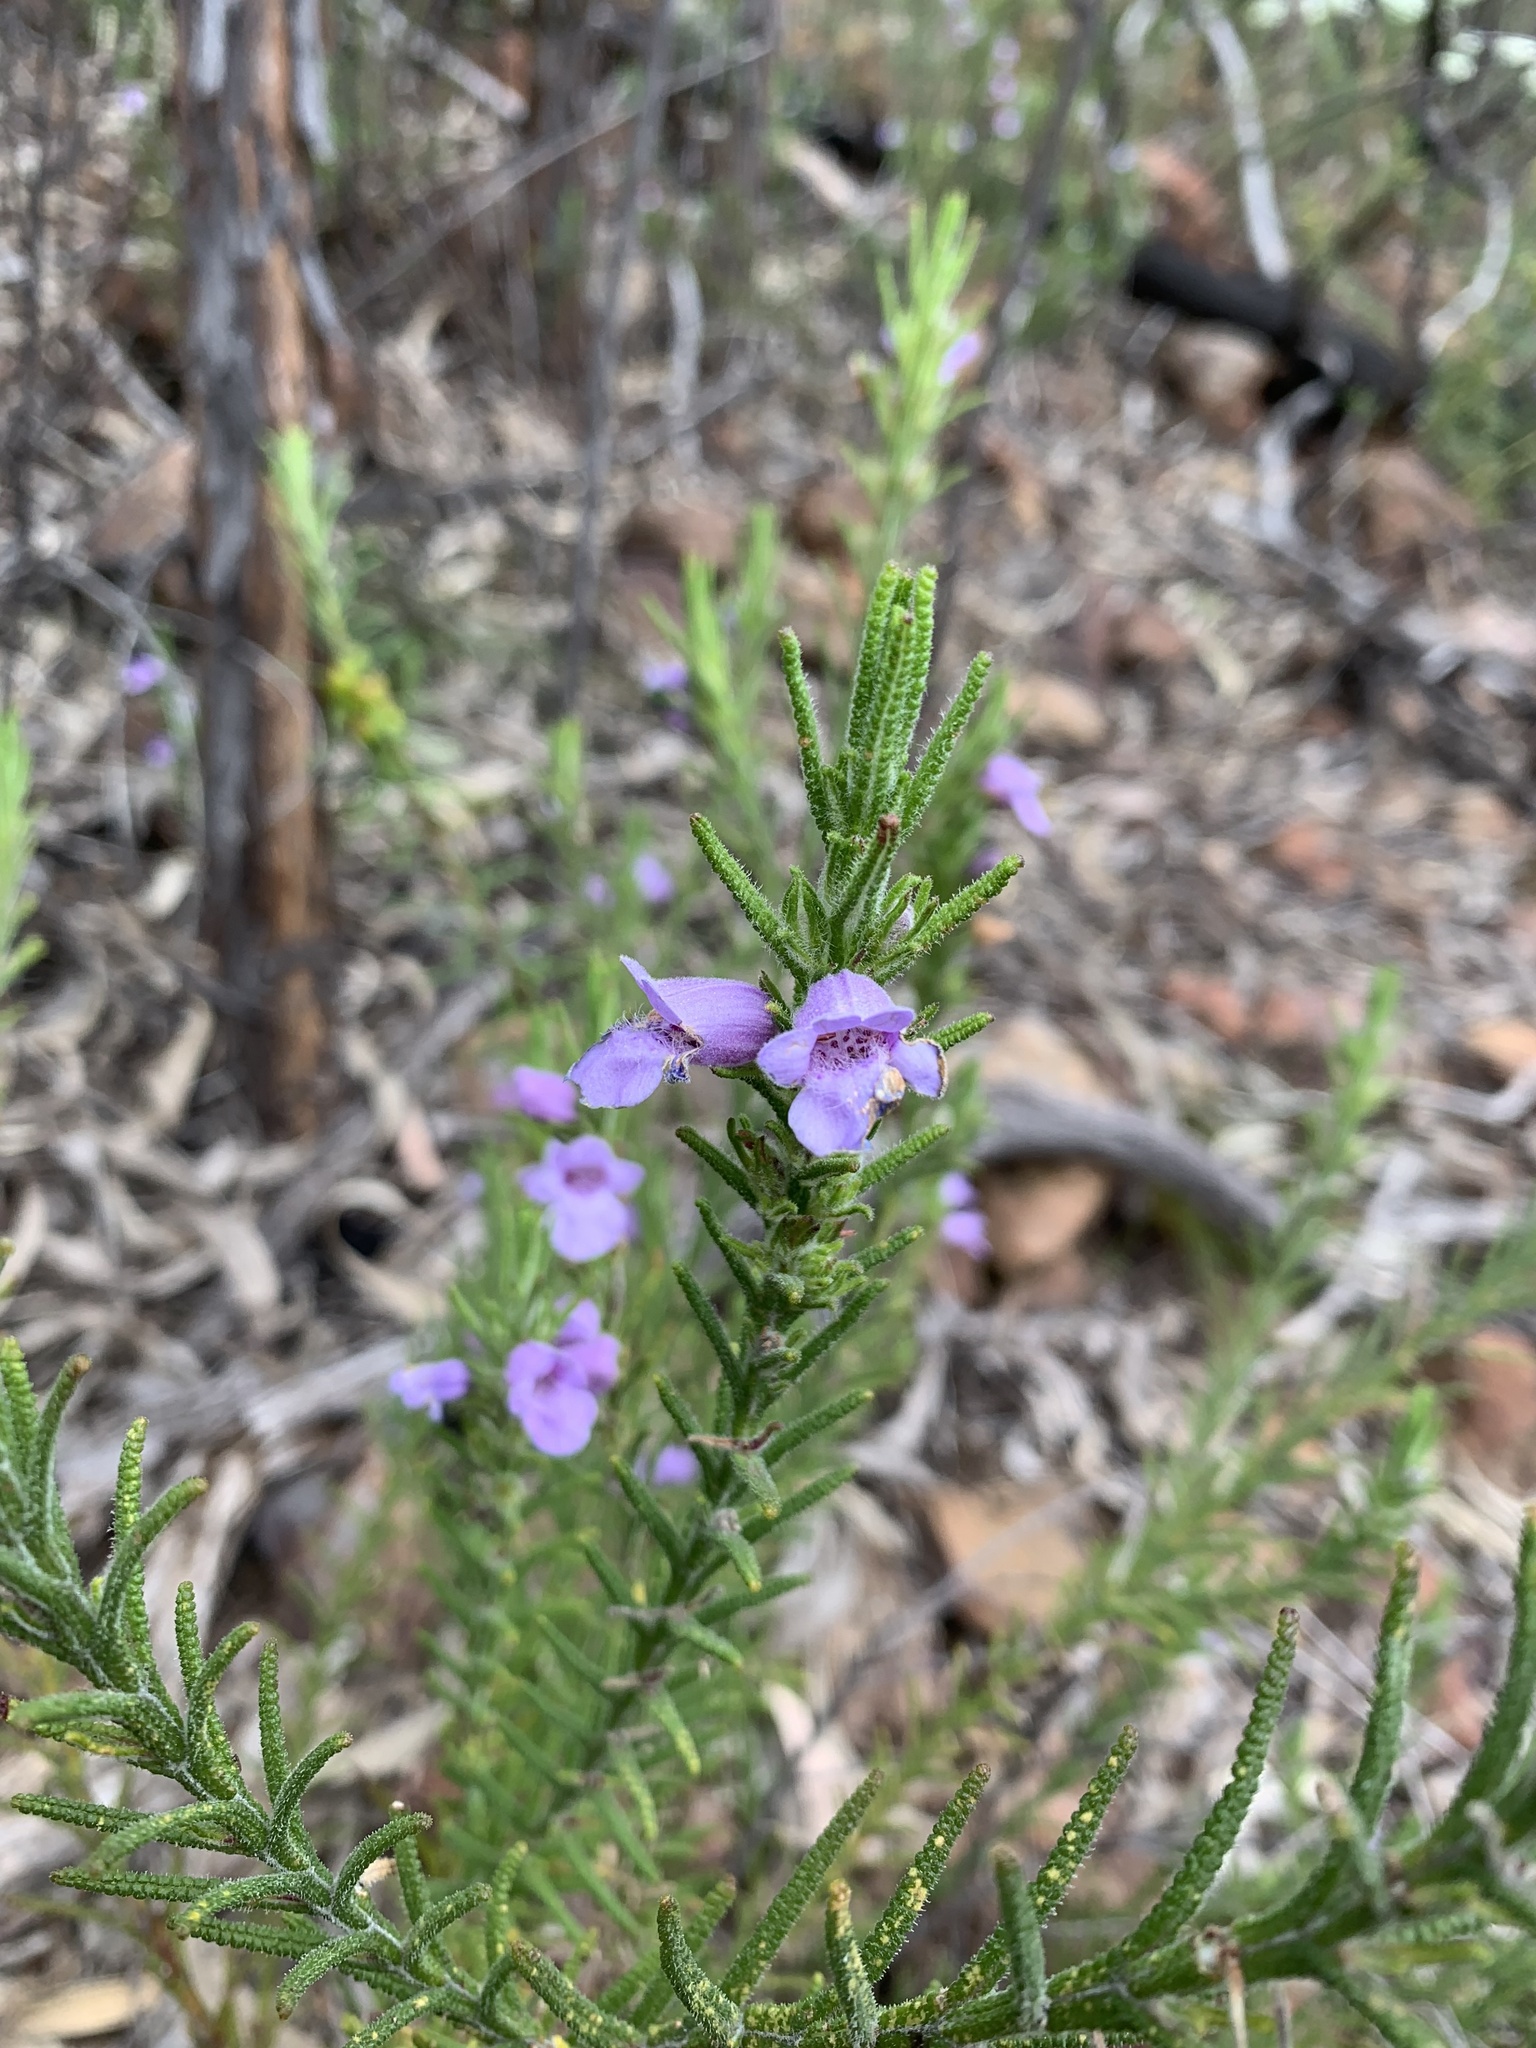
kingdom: Plantae
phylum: Tracheophyta
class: Magnoliopsida
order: Lamiales
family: Lamiaceae
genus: Chloanthes
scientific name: Chloanthes parviflora
